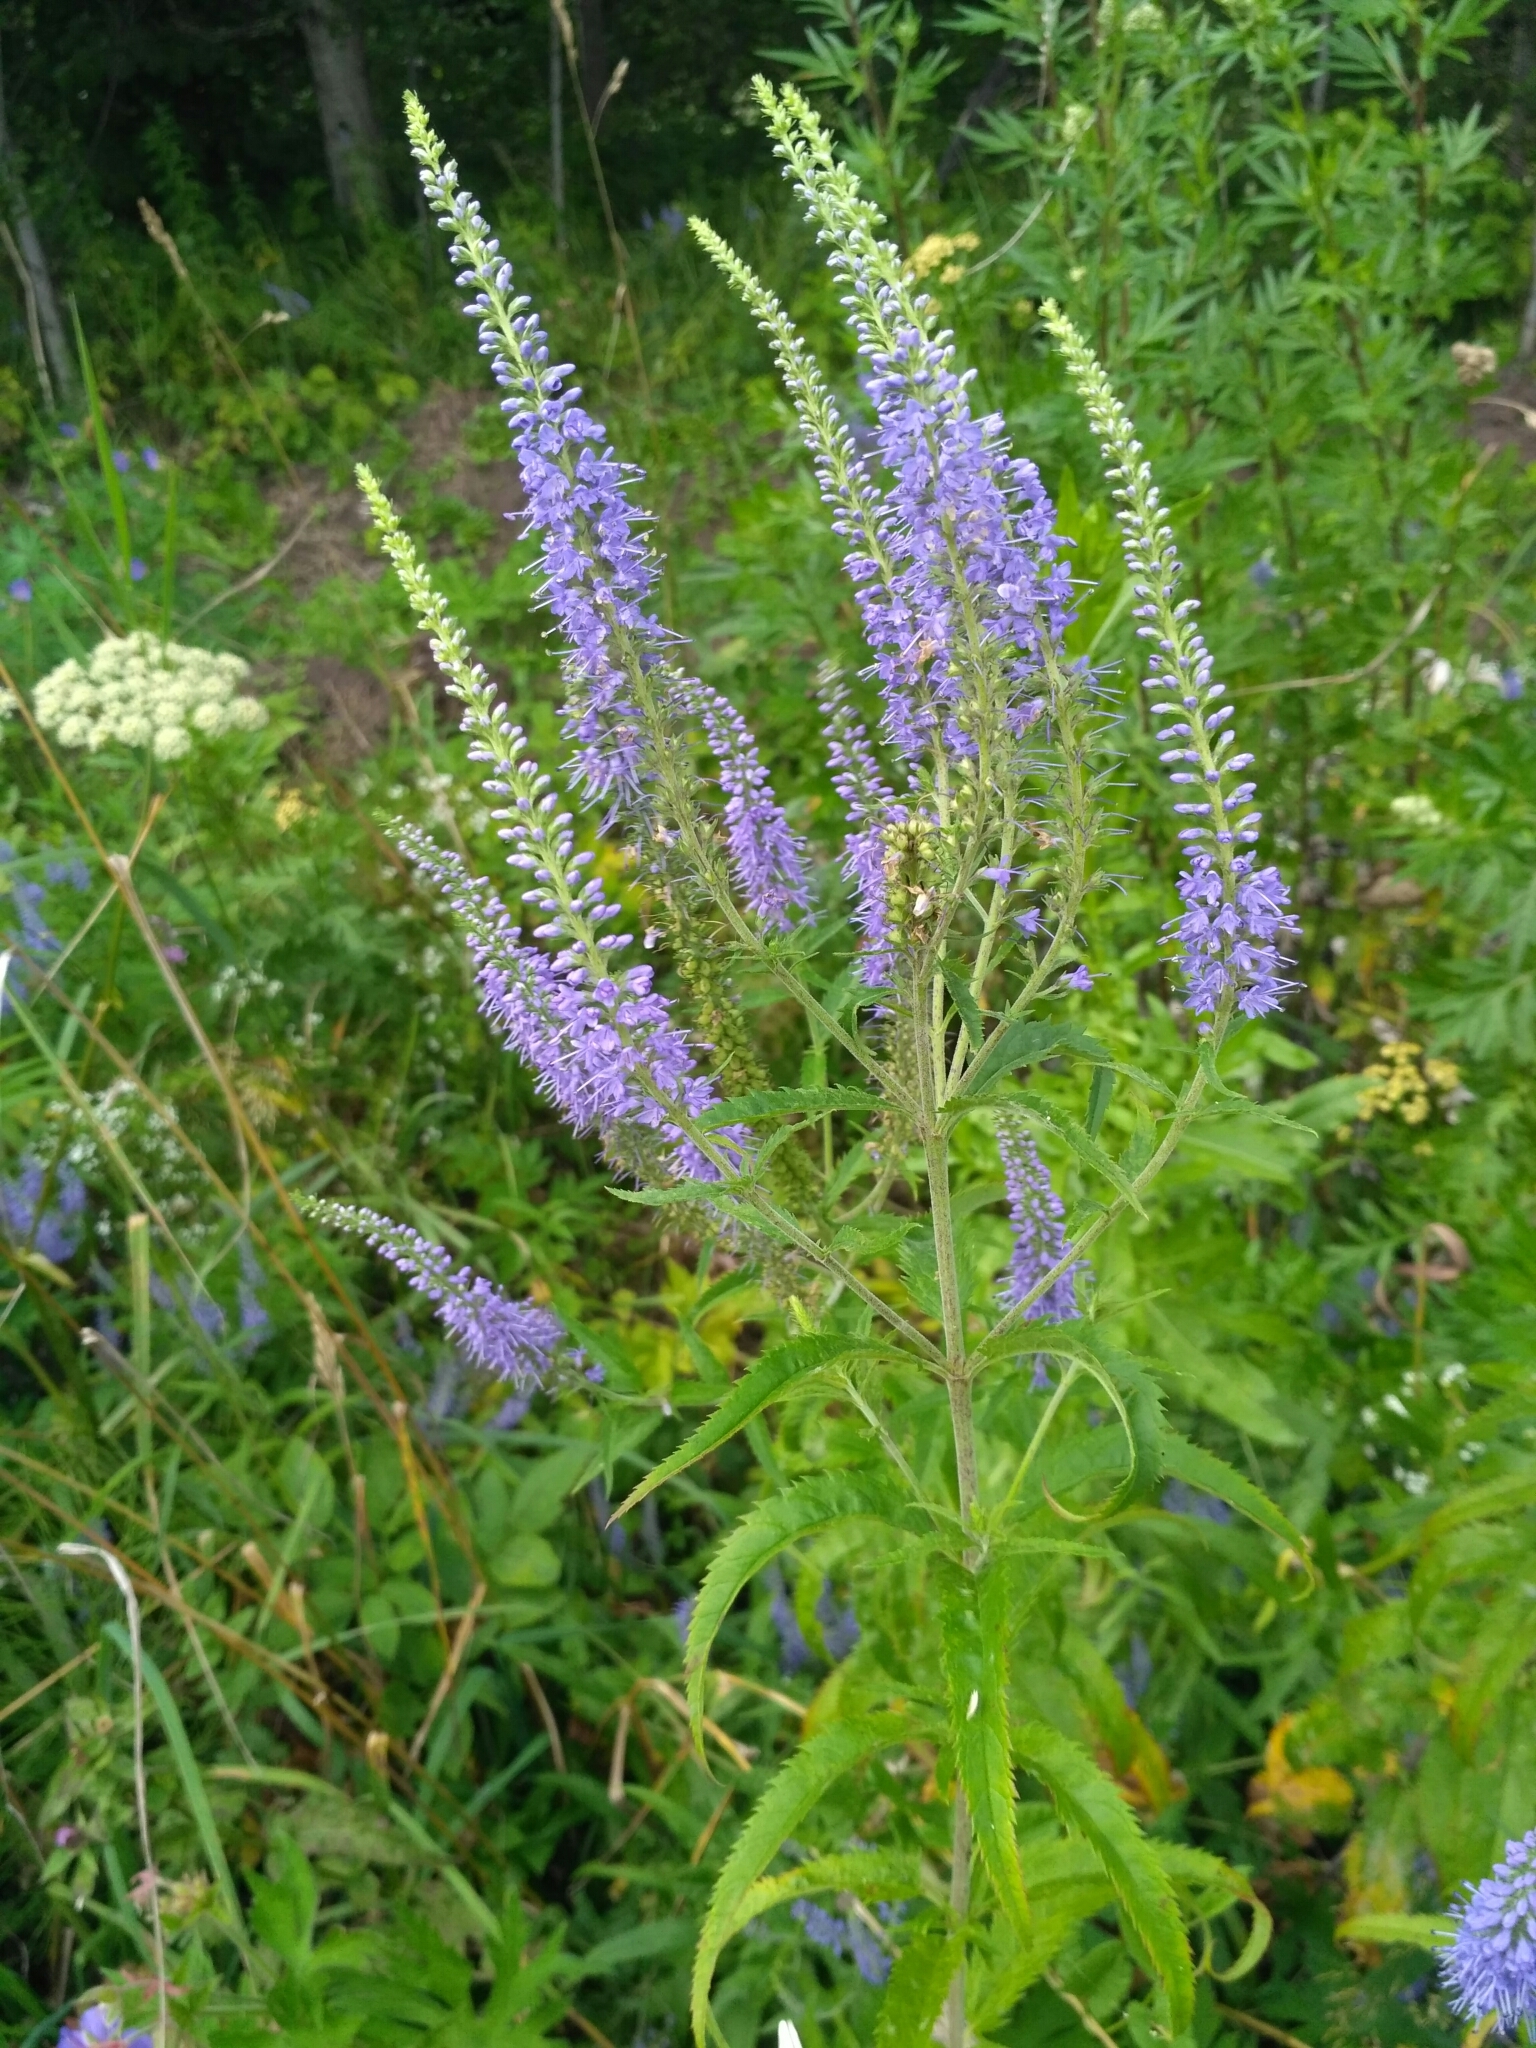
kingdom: Plantae
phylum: Tracheophyta
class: Magnoliopsida
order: Lamiales
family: Plantaginaceae
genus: Veronica
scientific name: Veronica longifolia
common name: Garden speedwell
